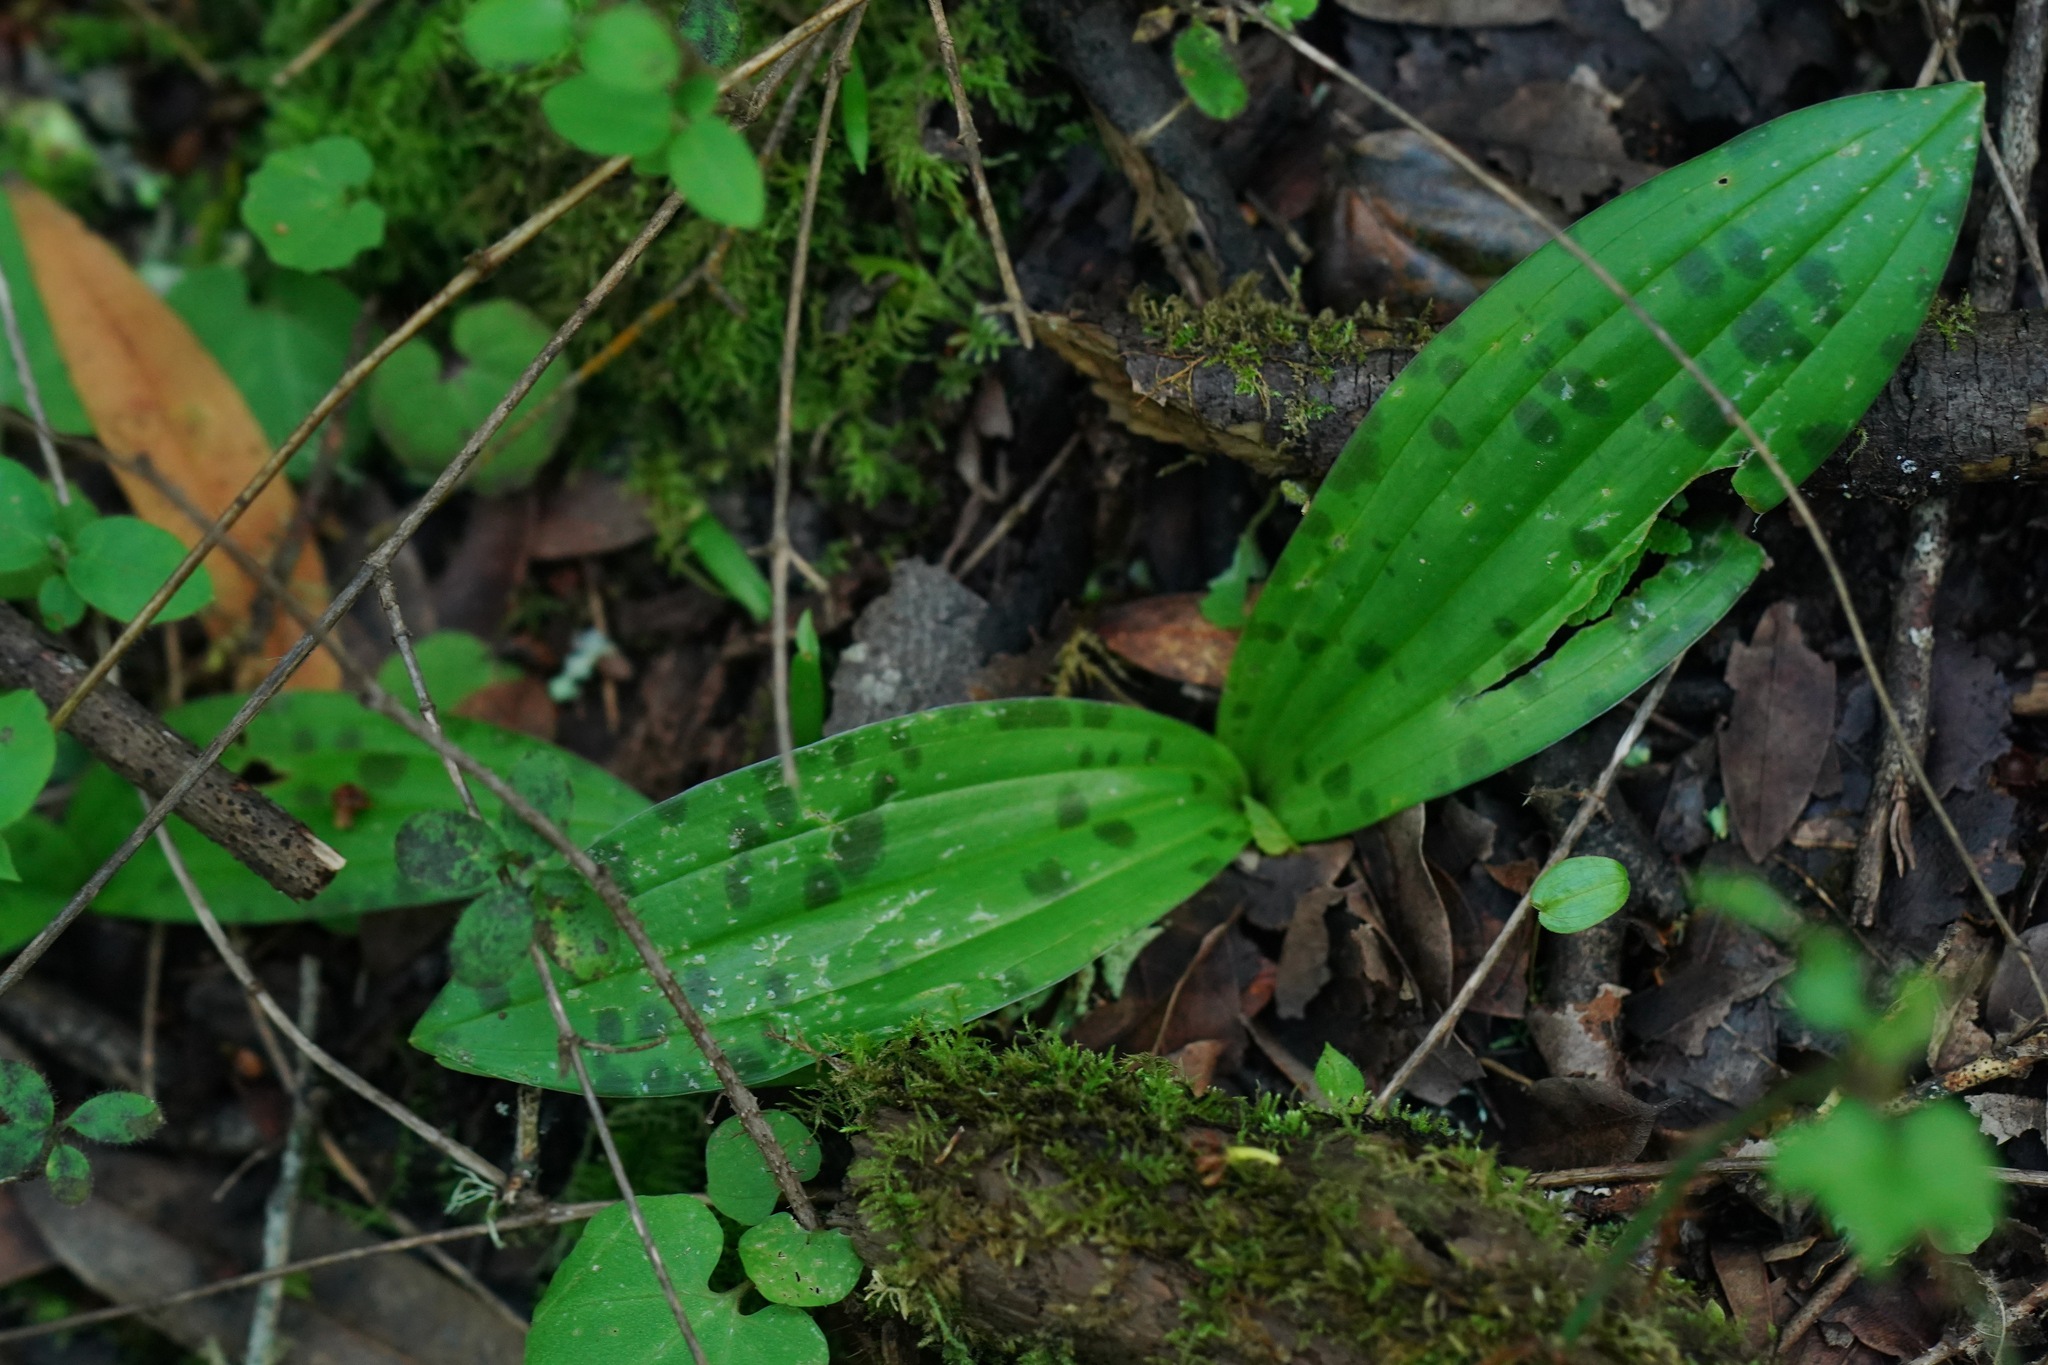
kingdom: Plantae
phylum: Tracheophyta
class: Liliopsida
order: Liliales
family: Liliaceae
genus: Scoliopus
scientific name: Scoliopus bigelovii
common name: Foetid adder's-tongue
